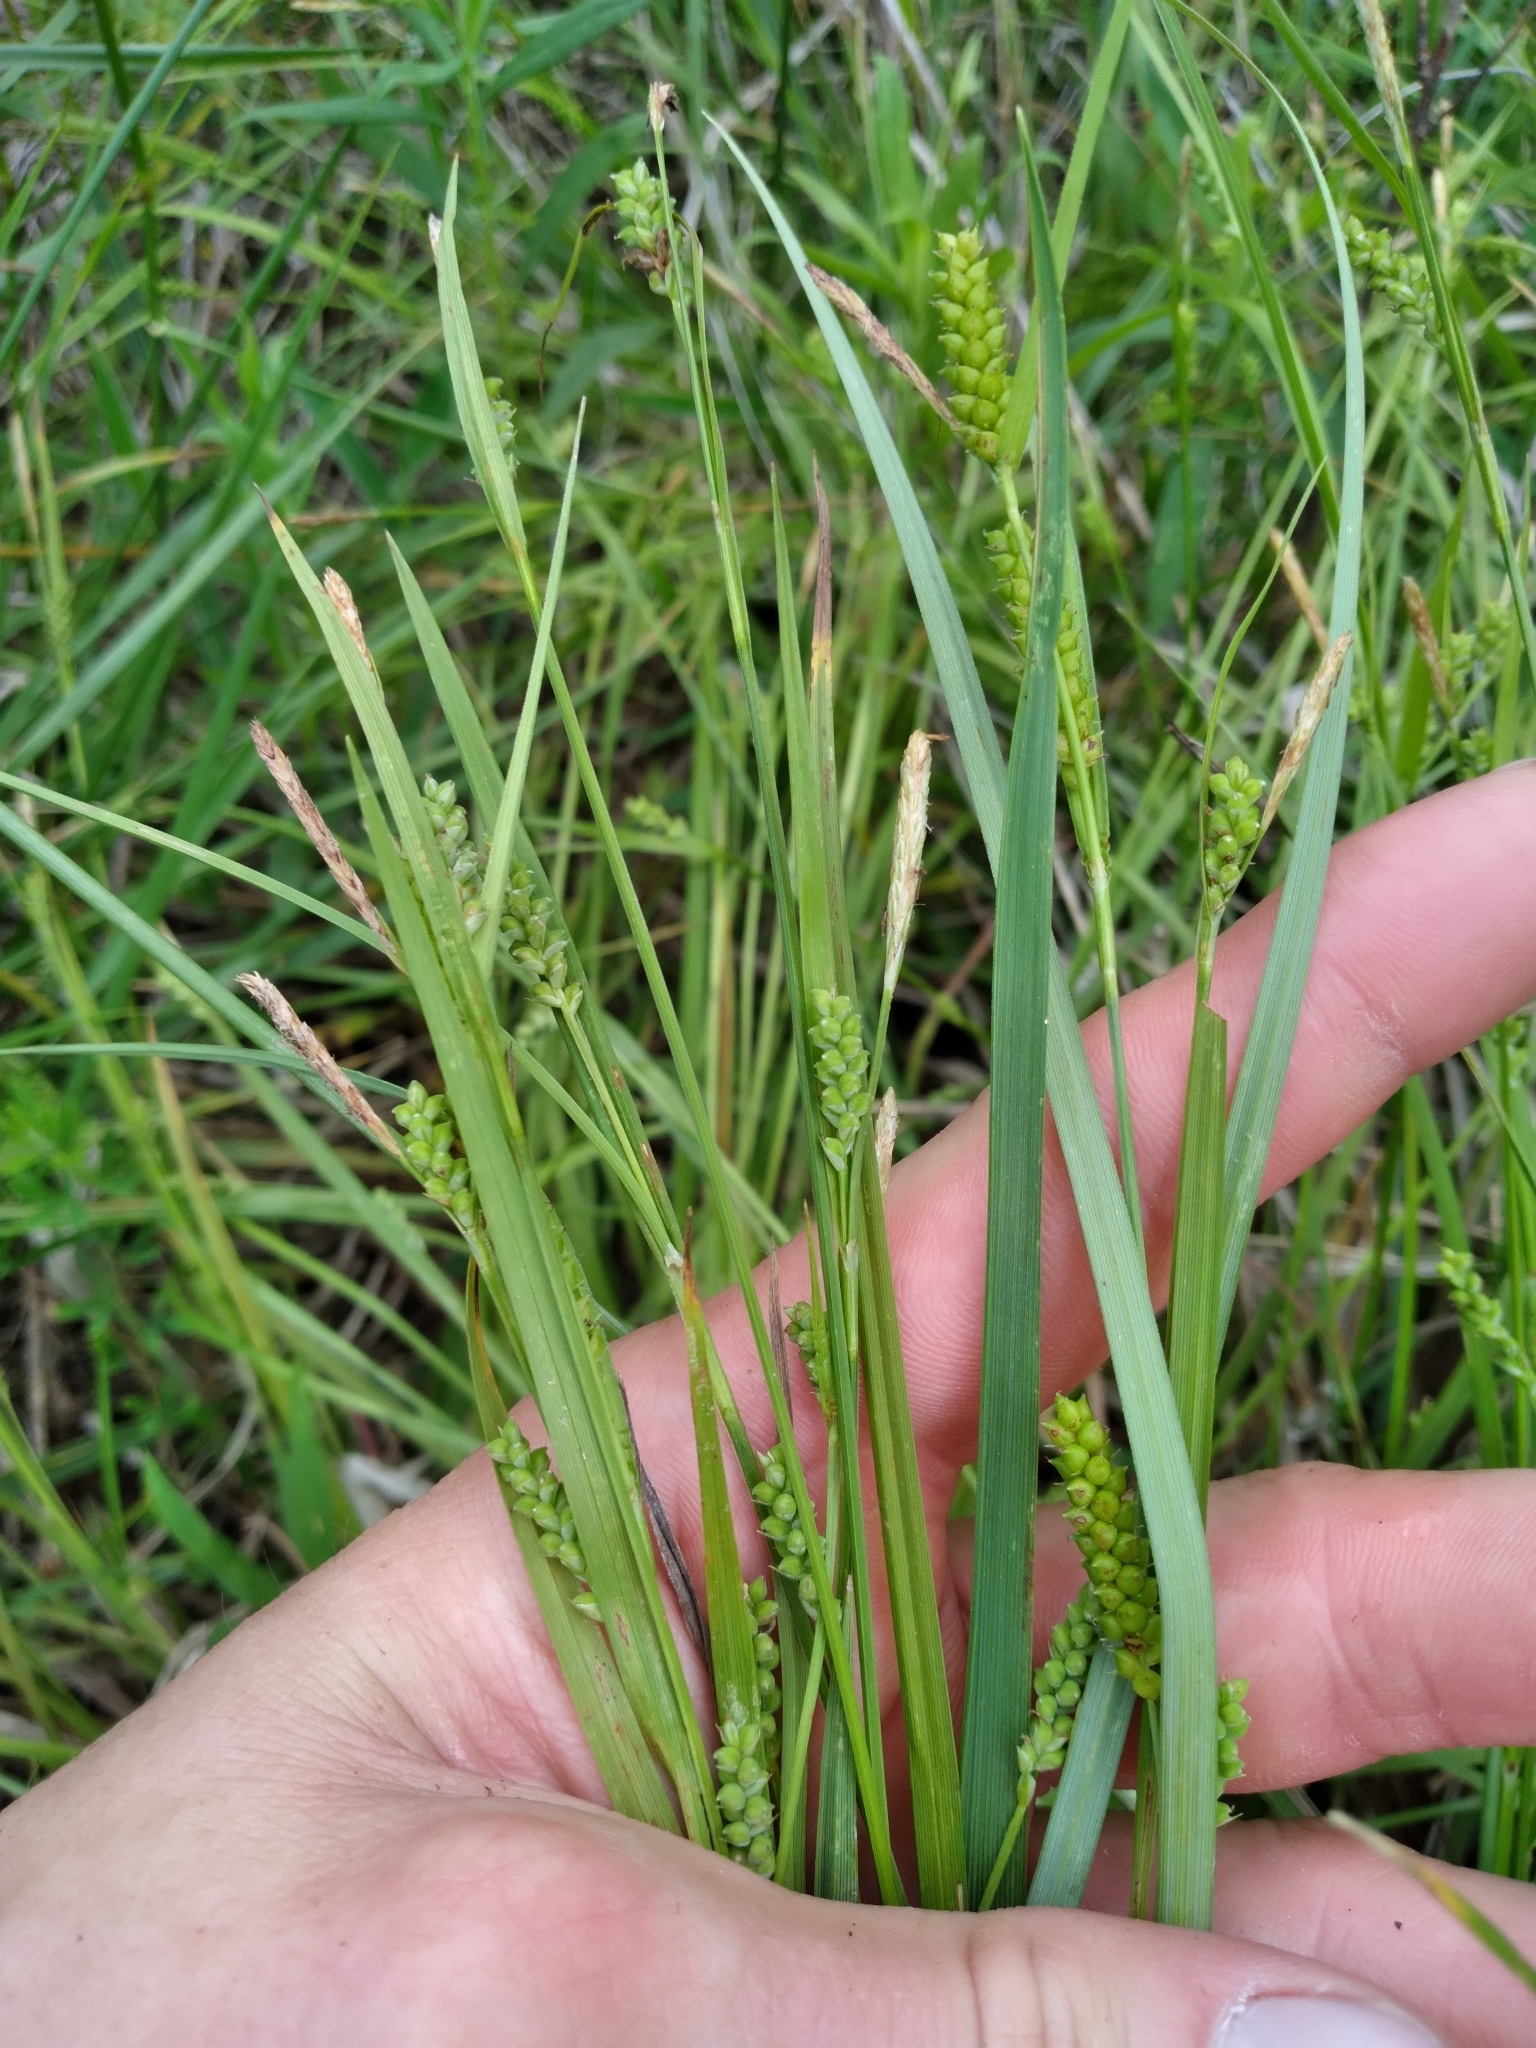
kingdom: Plantae
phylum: Tracheophyta
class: Liliopsida
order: Poales
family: Cyperaceae
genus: Carex
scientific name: Carex granularis
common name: Granular sedge
